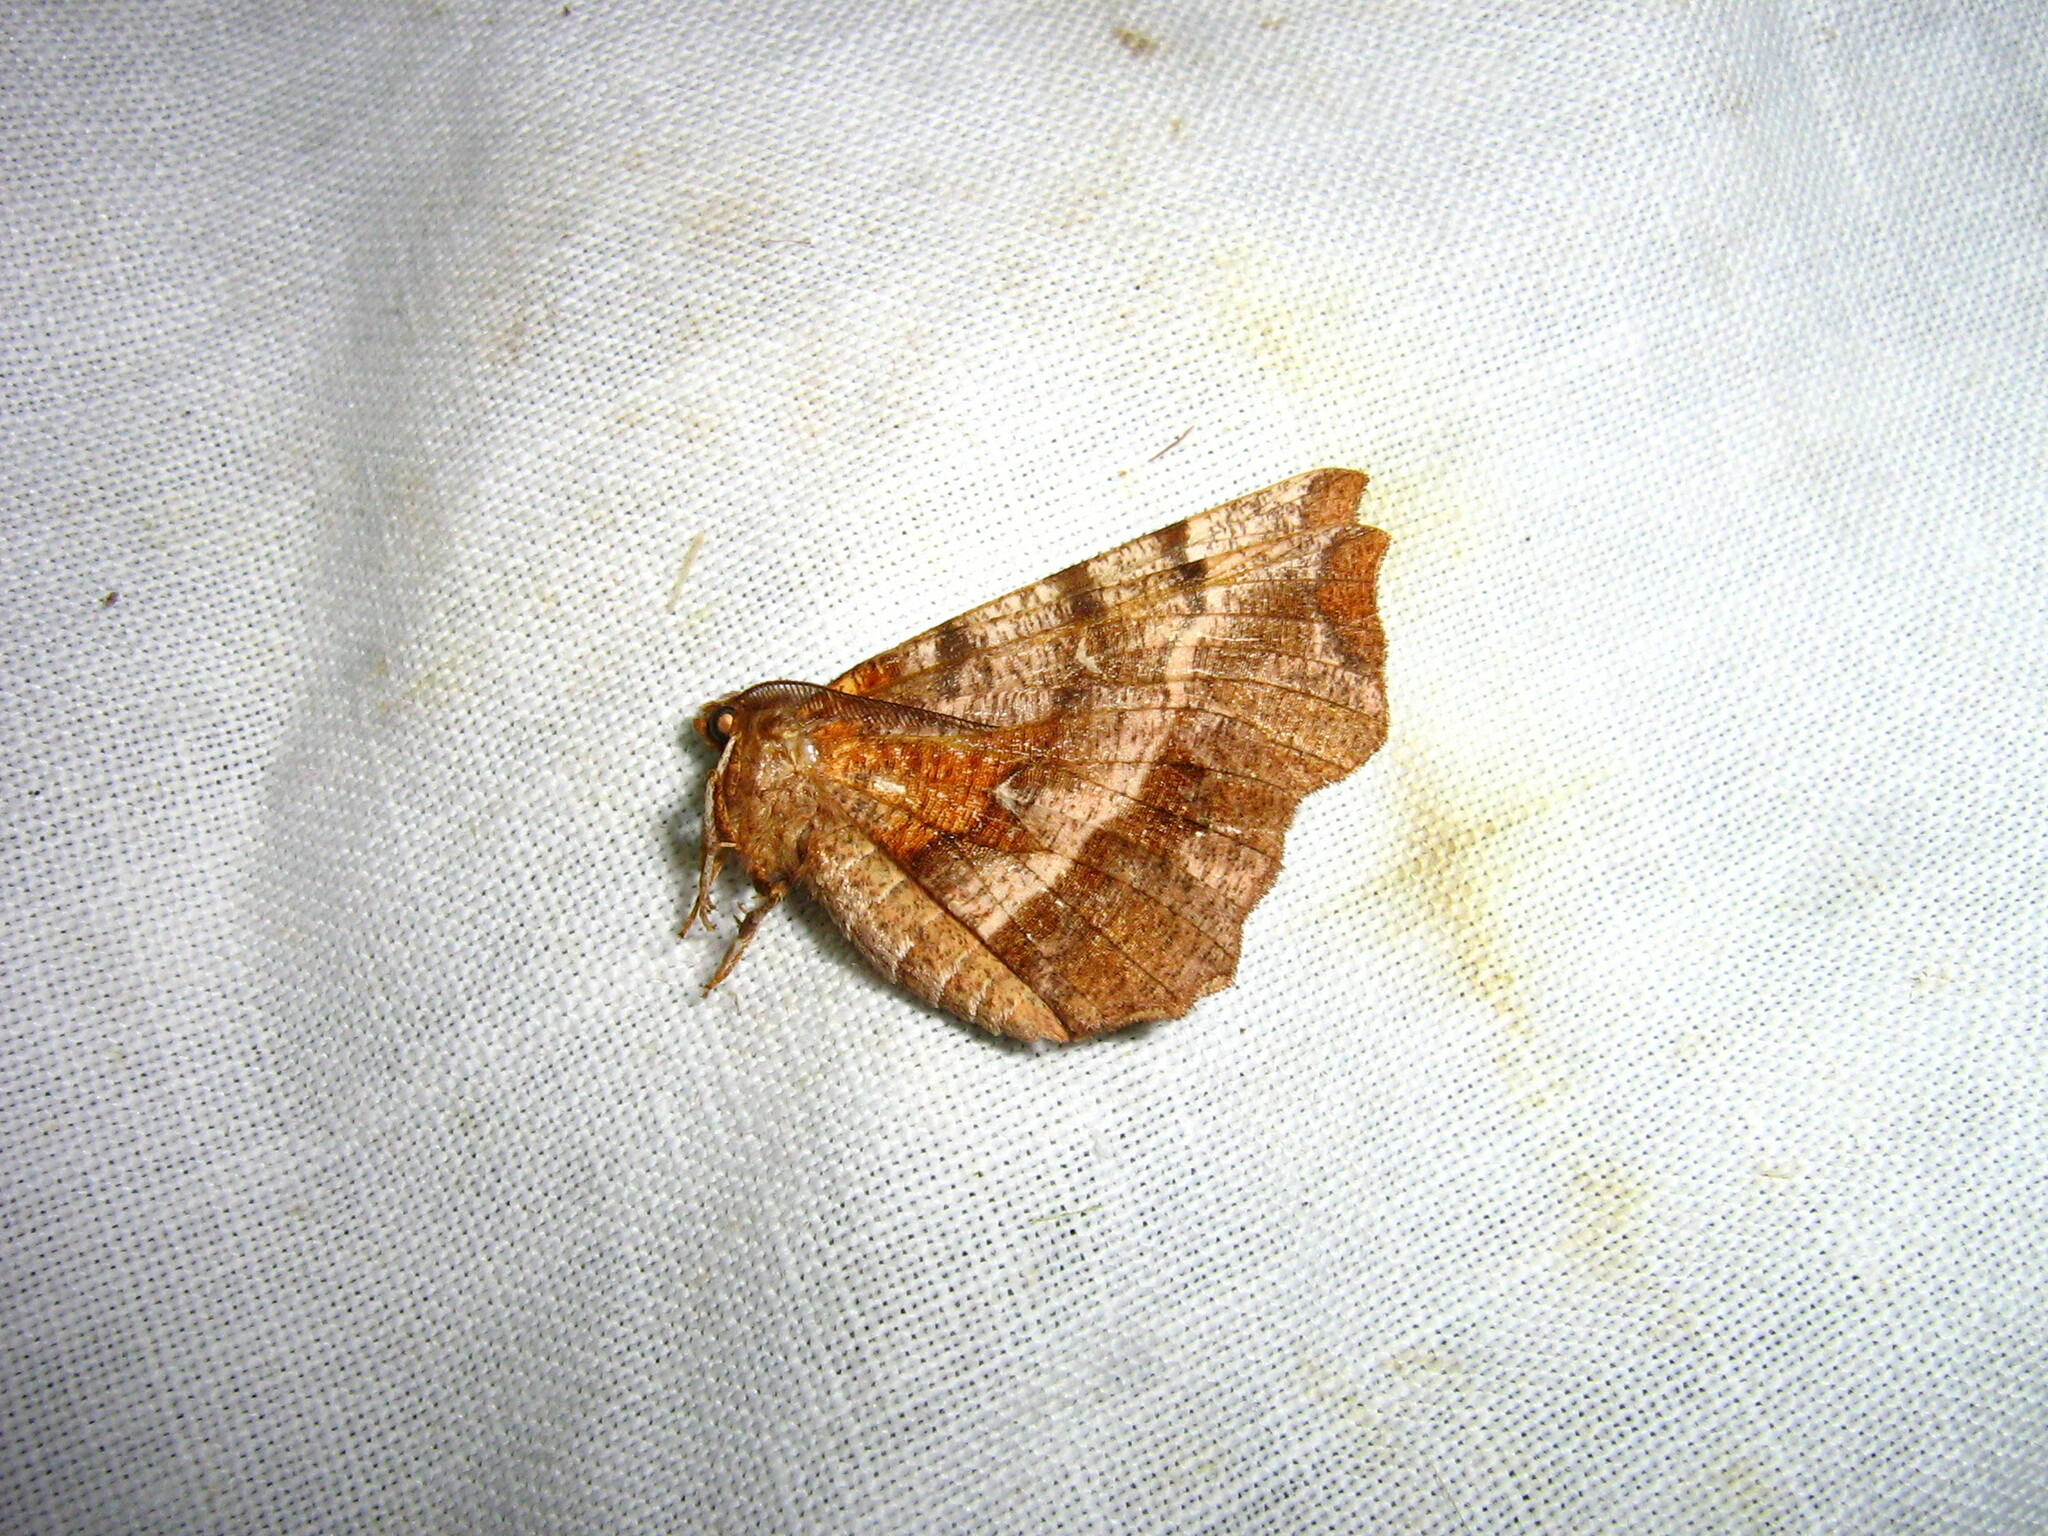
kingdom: Animalia
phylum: Arthropoda
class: Insecta
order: Lepidoptera
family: Geometridae
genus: Selenia
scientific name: Selenia dentaria
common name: Early thorn
